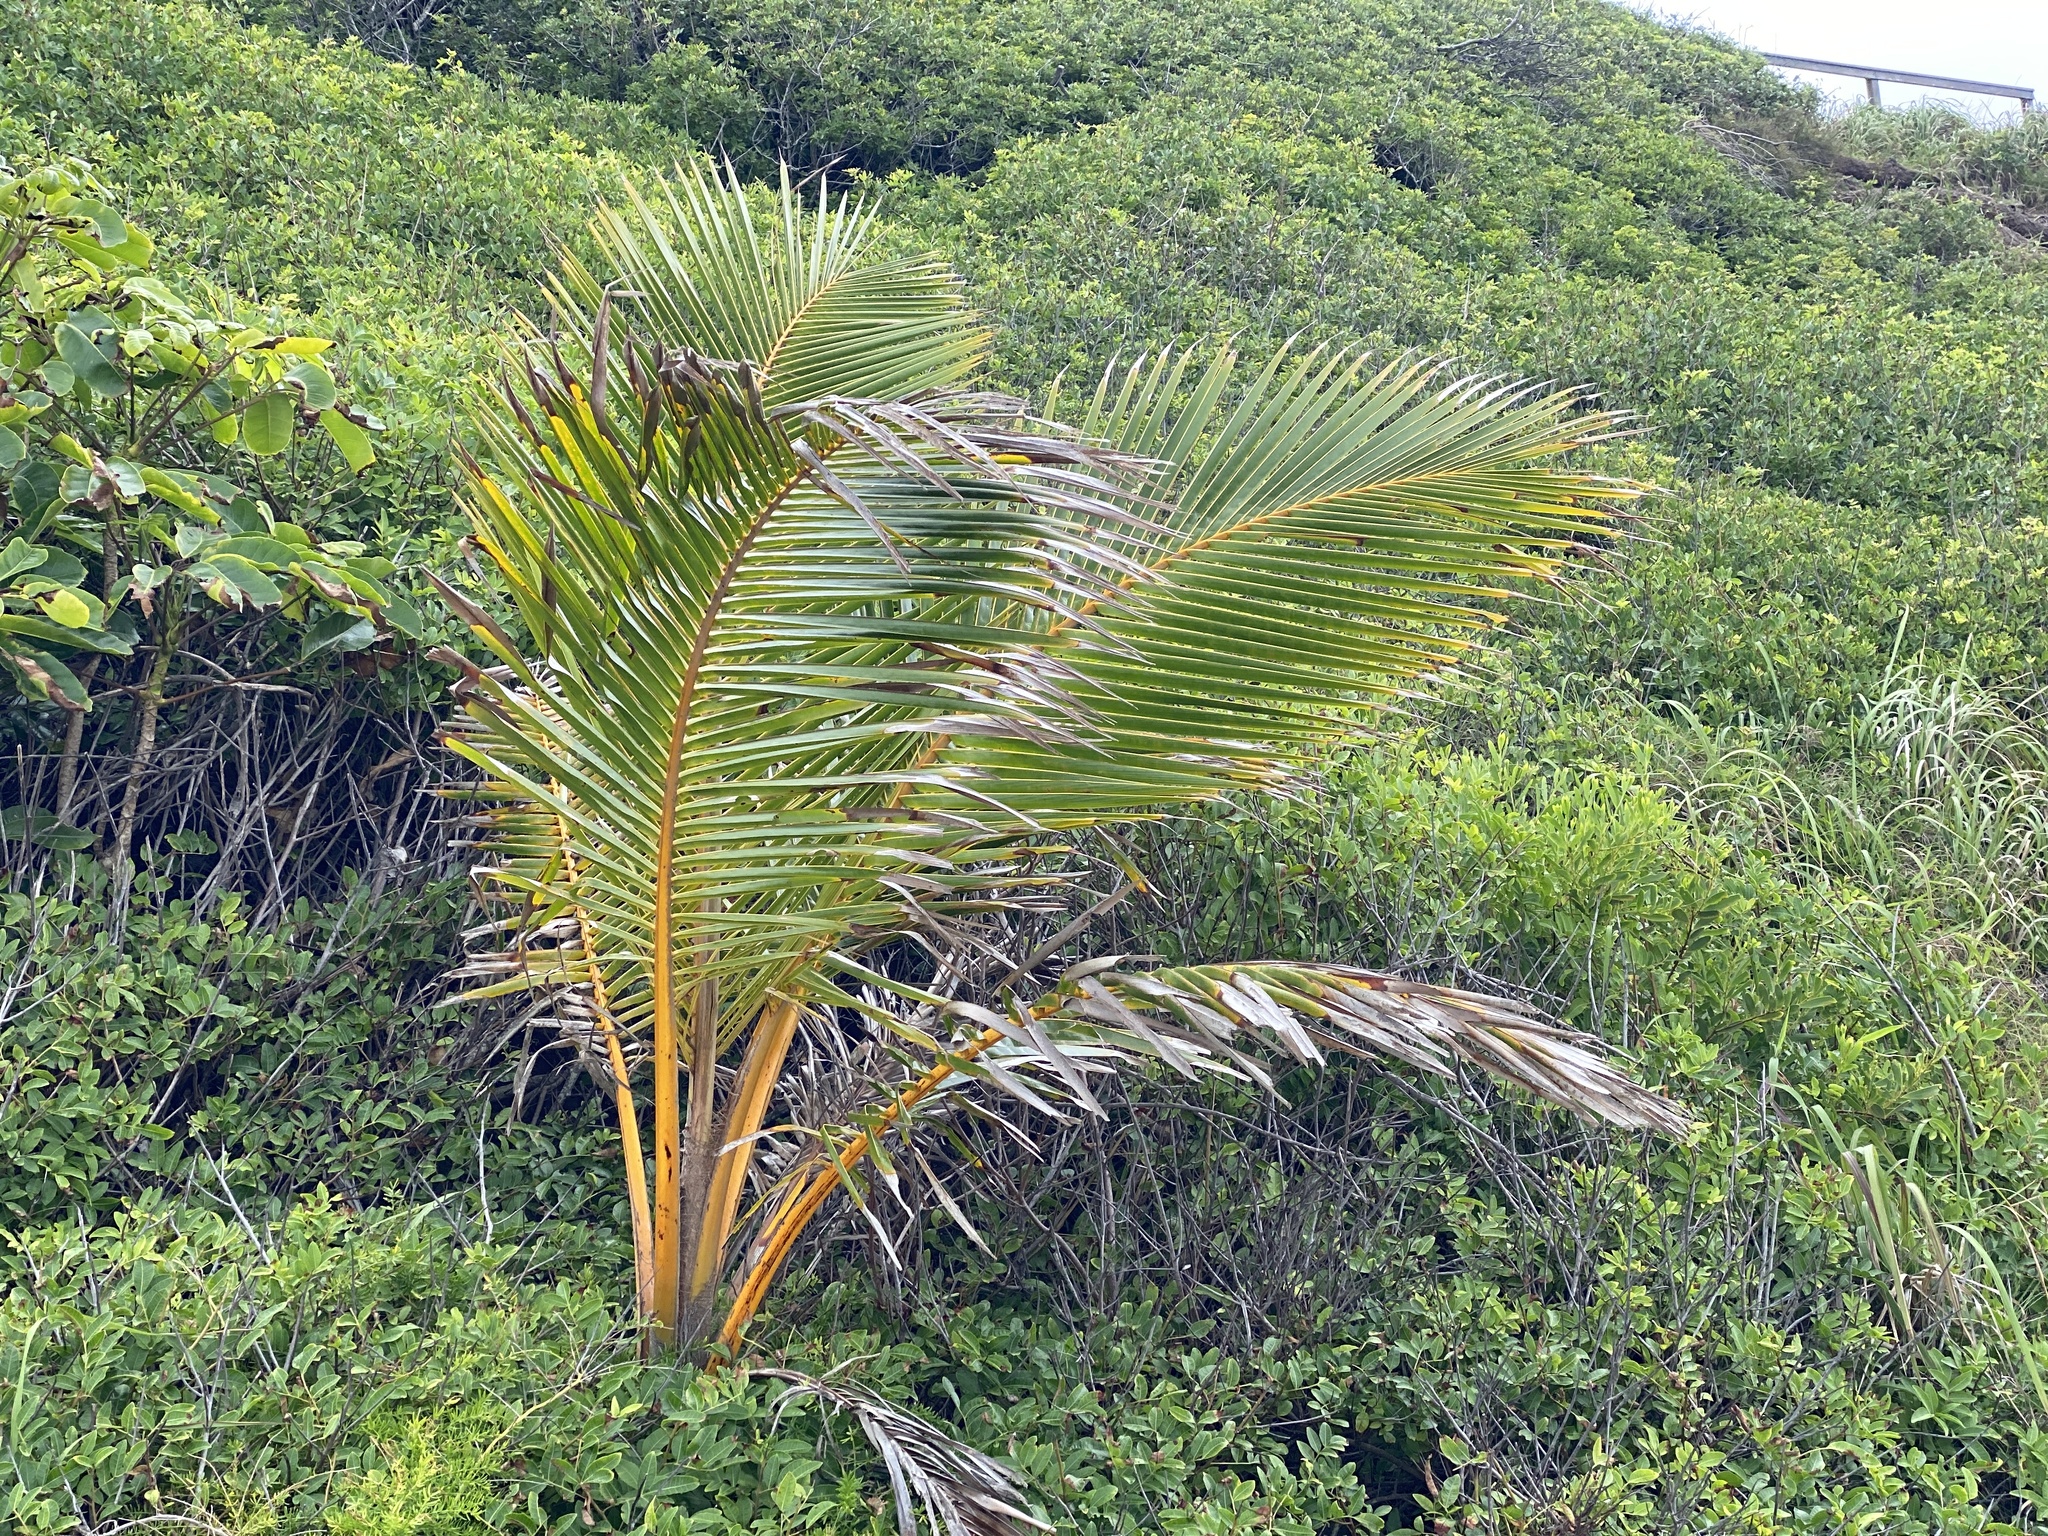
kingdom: Plantae
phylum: Tracheophyta
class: Liliopsida
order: Arecales
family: Arecaceae
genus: Cocos
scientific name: Cocos nucifera
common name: Coconut palm
